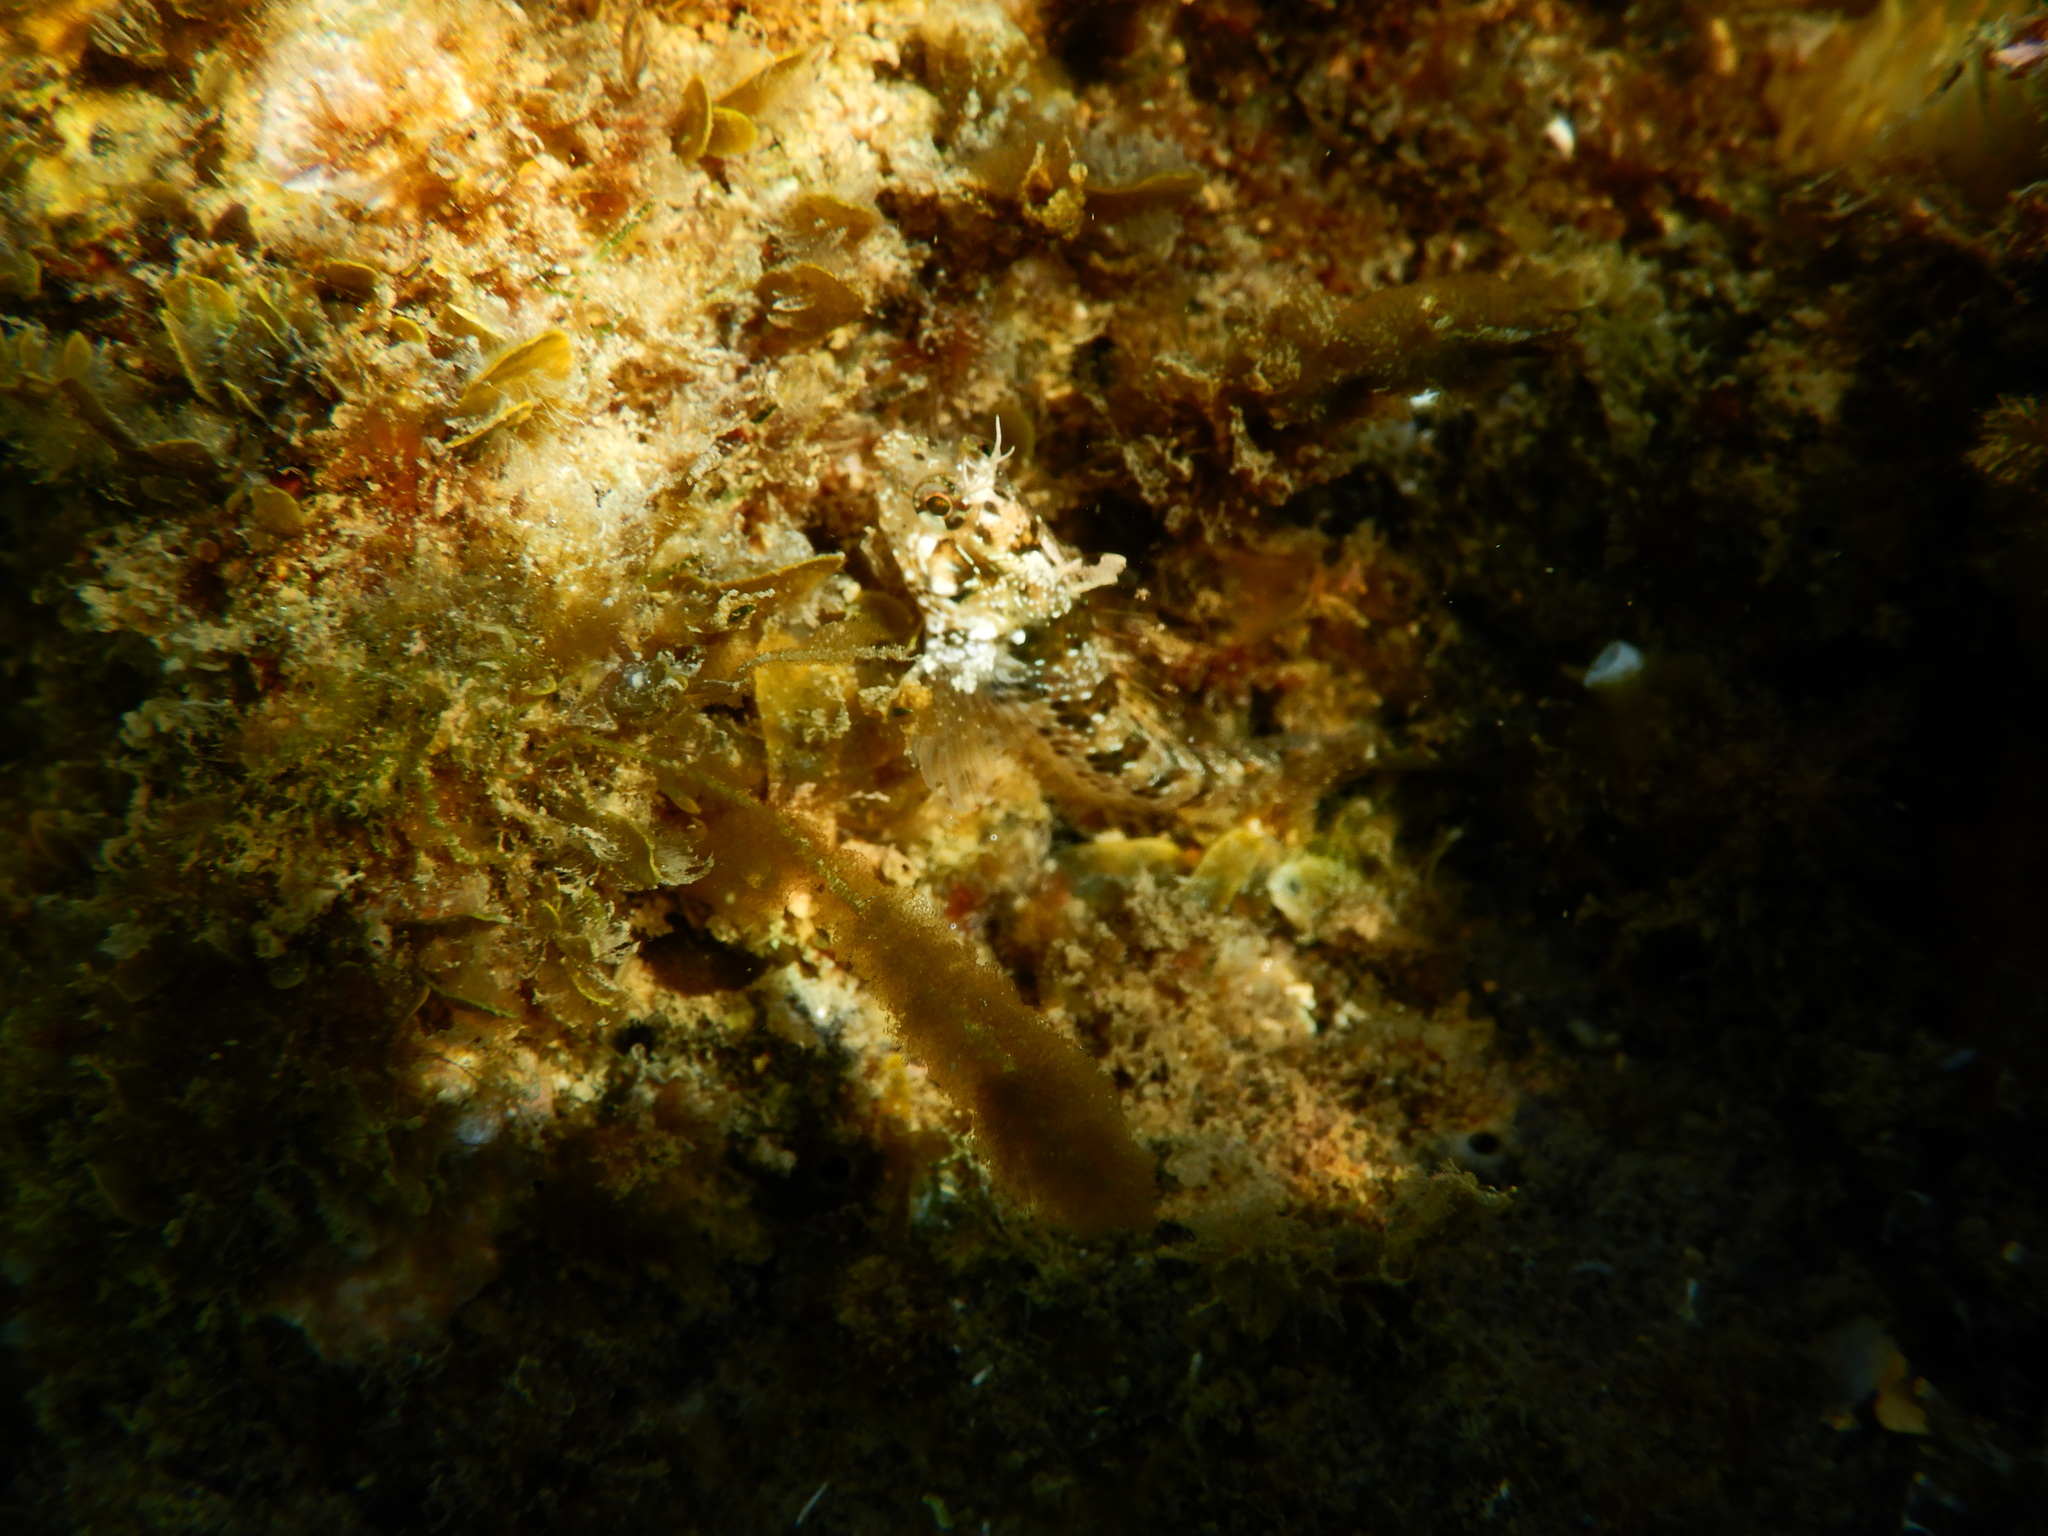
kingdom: Animalia
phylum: Chordata
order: Perciformes
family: Blenniidae
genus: Parablennius
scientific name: Parablennius incognitus
